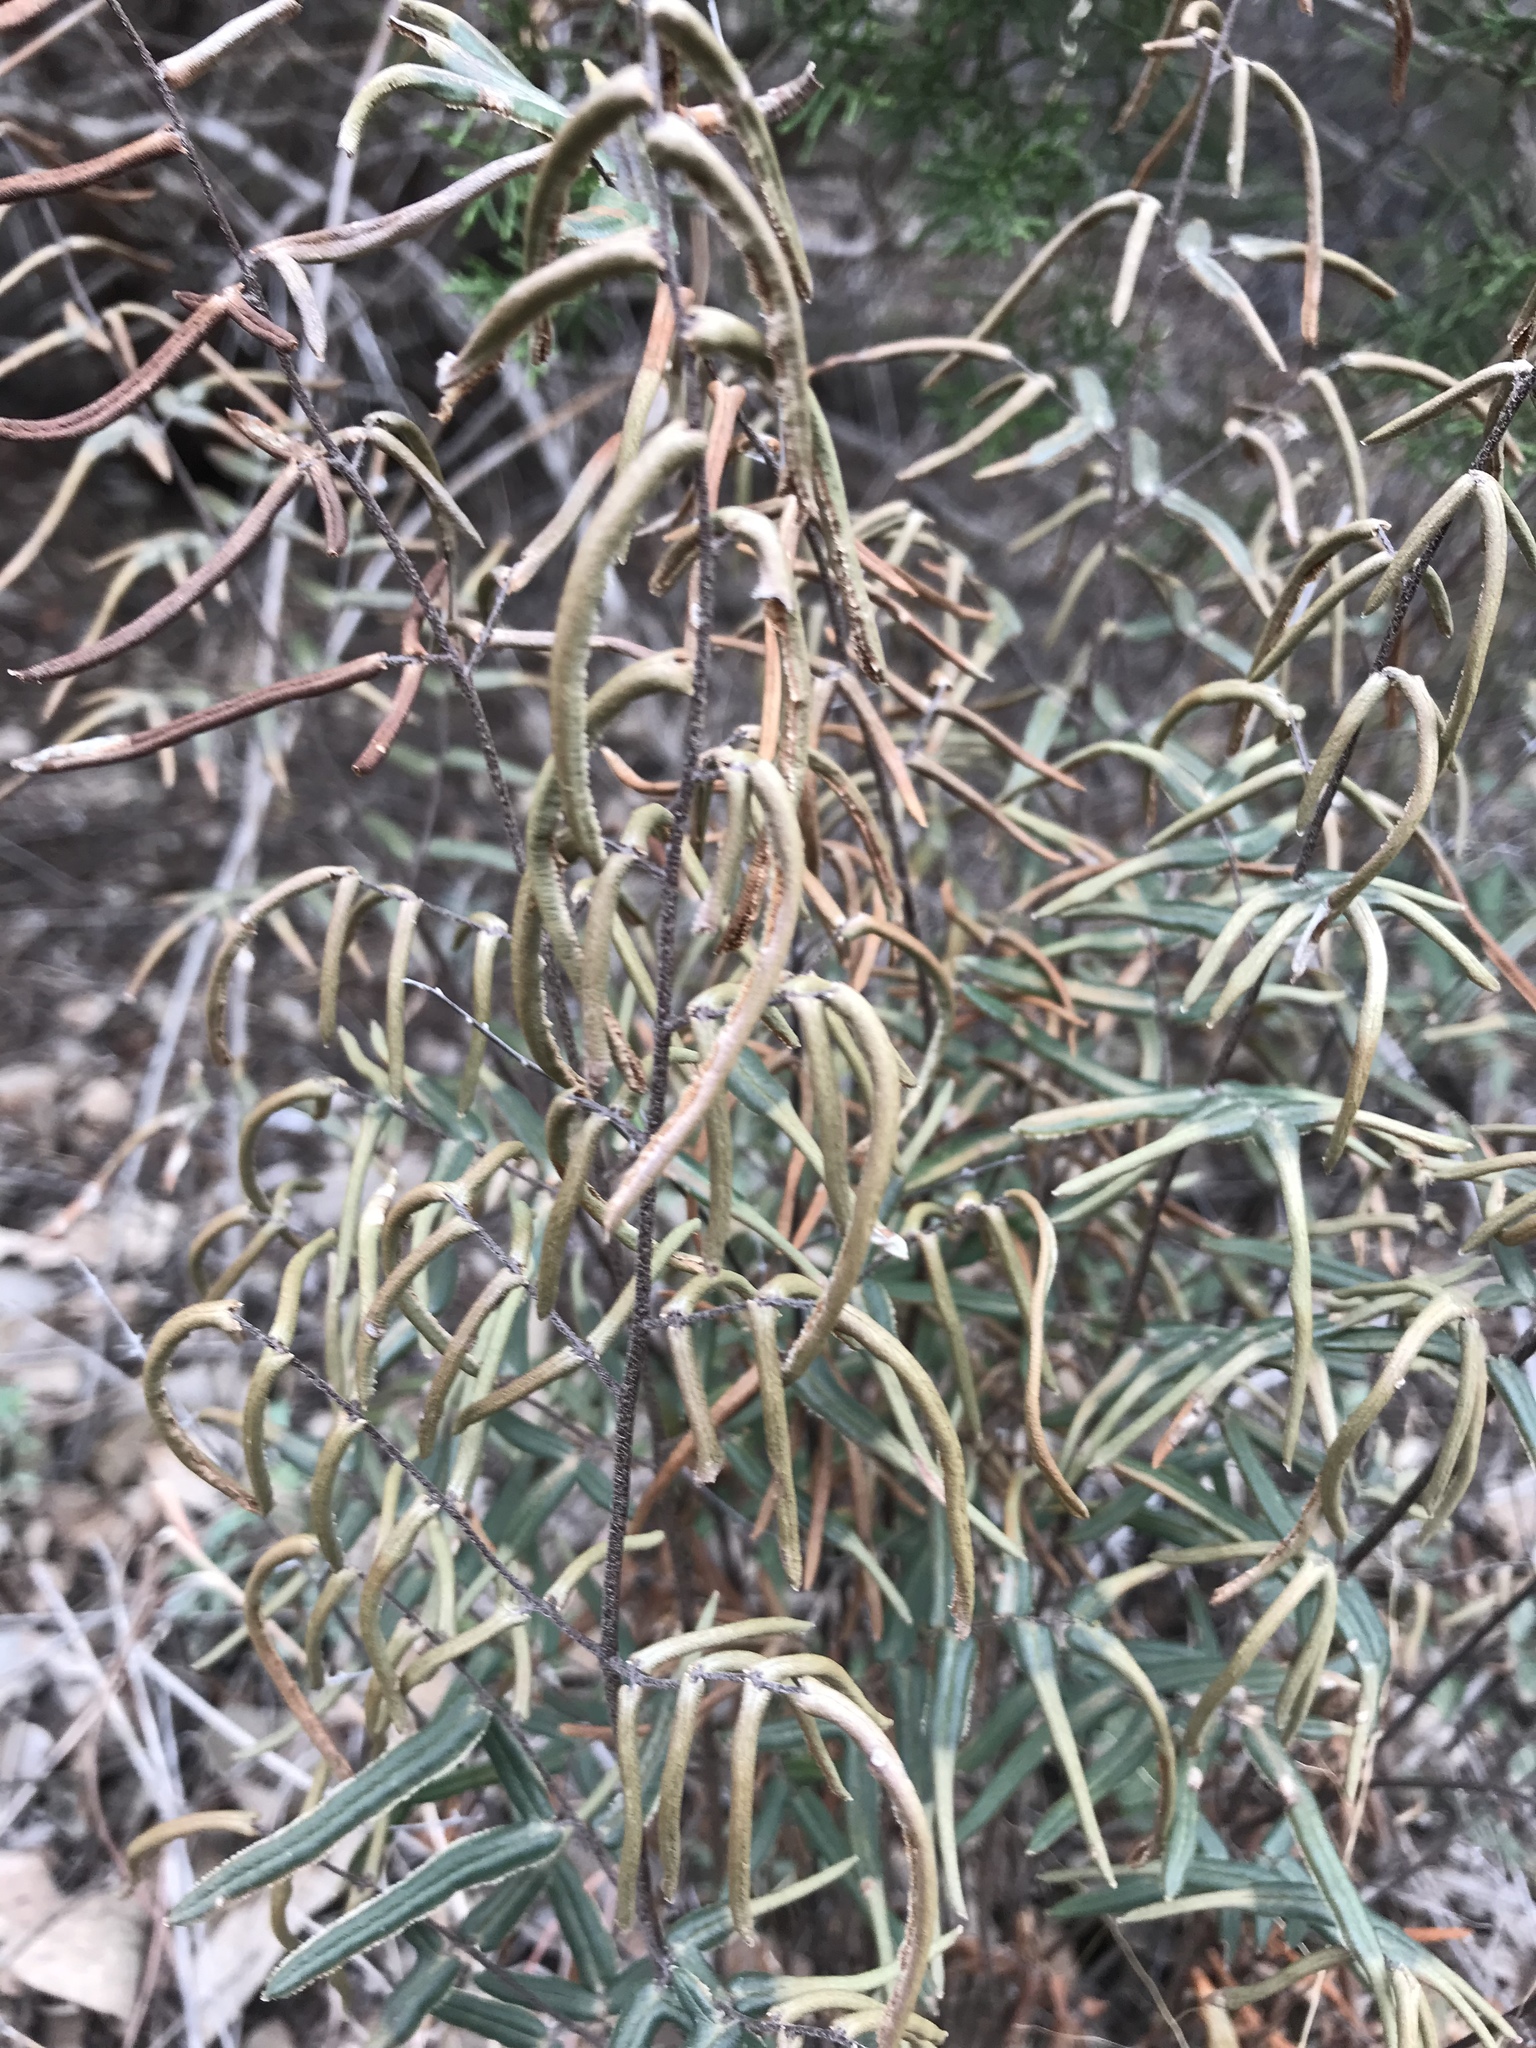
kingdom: Plantae
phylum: Tracheophyta
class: Polypodiopsida
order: Polypodiales
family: Pteridaceae
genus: Pellaea
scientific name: Pellaea atropurpurea
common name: Hairy cliffbrake
